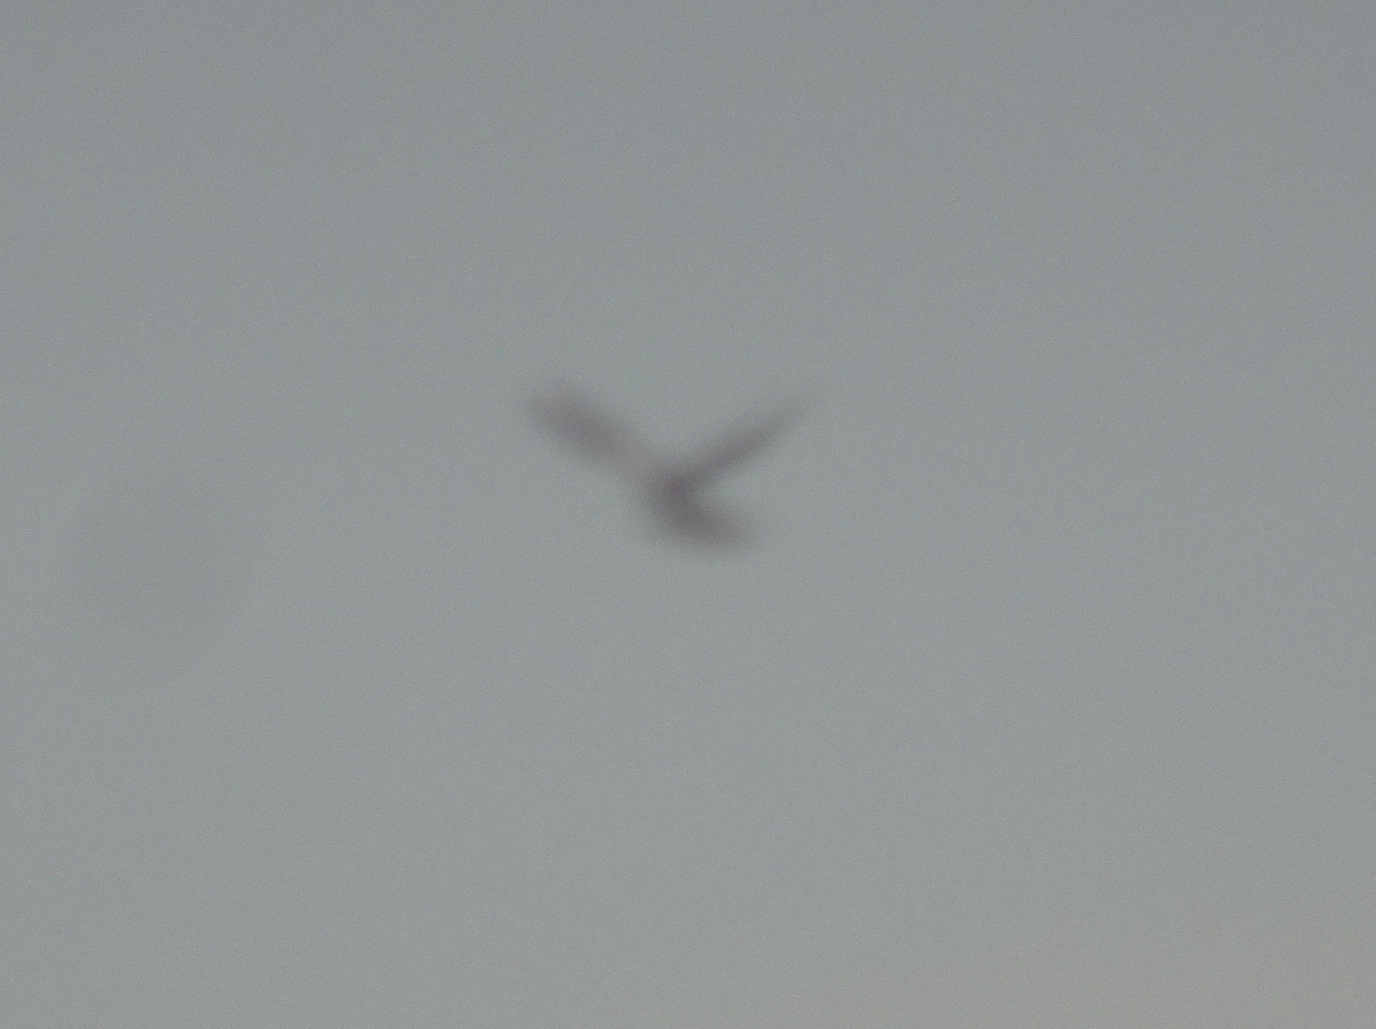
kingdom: Animalia
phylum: Chordata
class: Aves
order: Falconiformes
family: Falconidae
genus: Falco
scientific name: Falco tinnunculus
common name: Common kestrel
